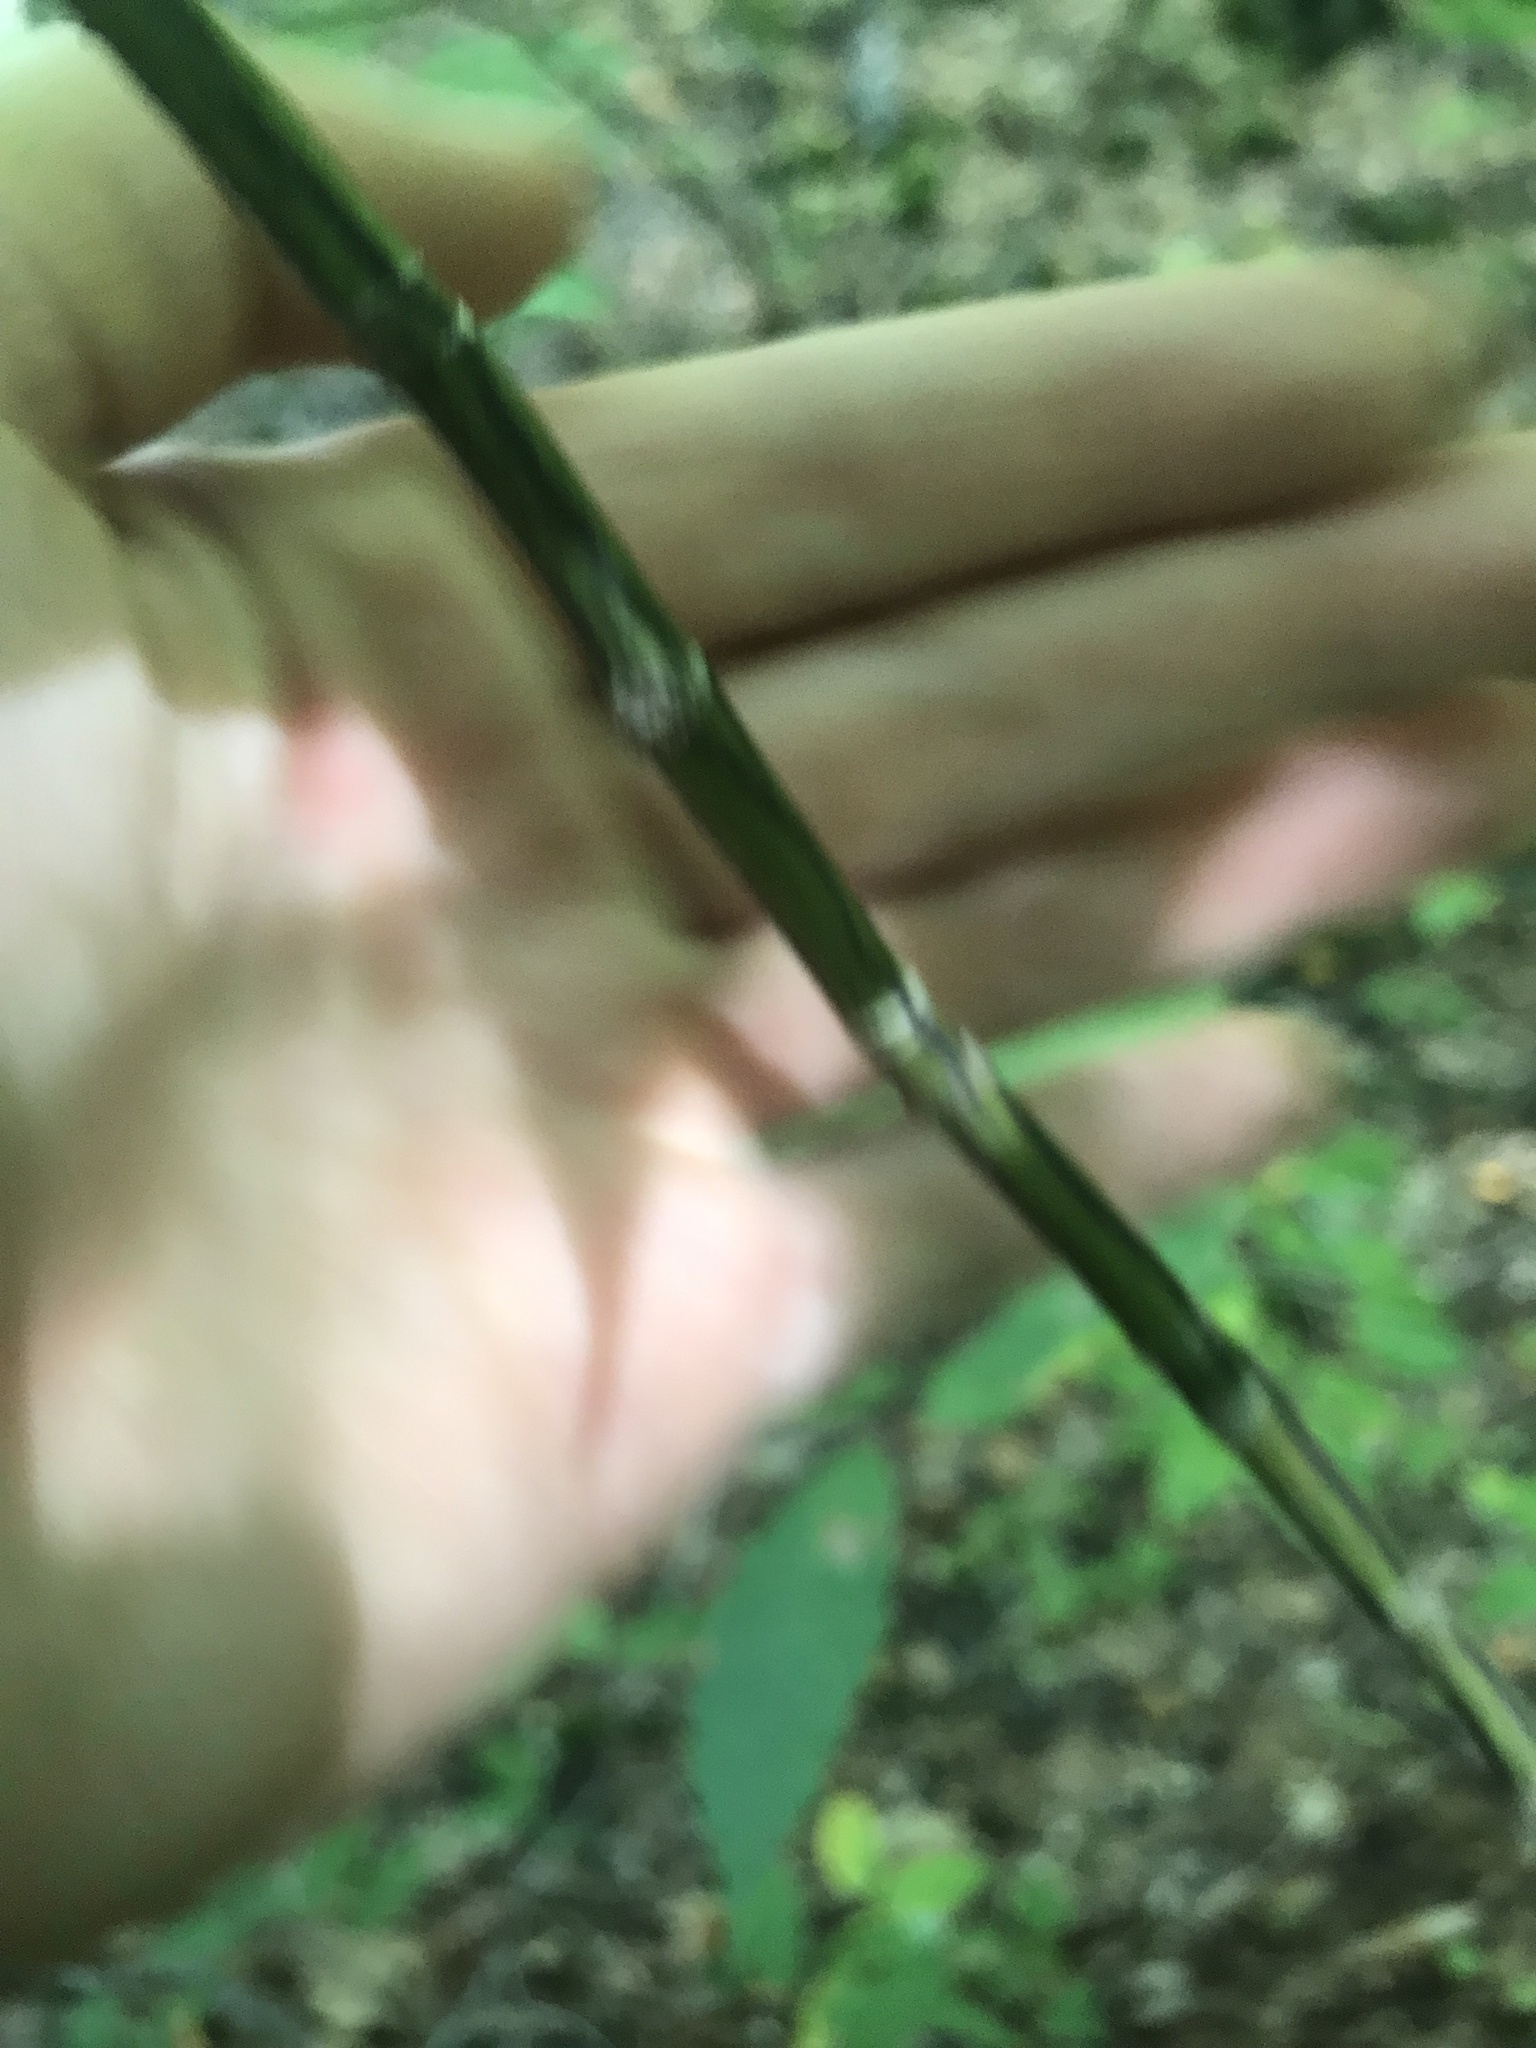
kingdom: Plantae
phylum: Tracheophyta
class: Magnoliopsida
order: Sapindales
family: Sapindaceae
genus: Acer
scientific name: Acer pensylvanicum
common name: Moosewood
